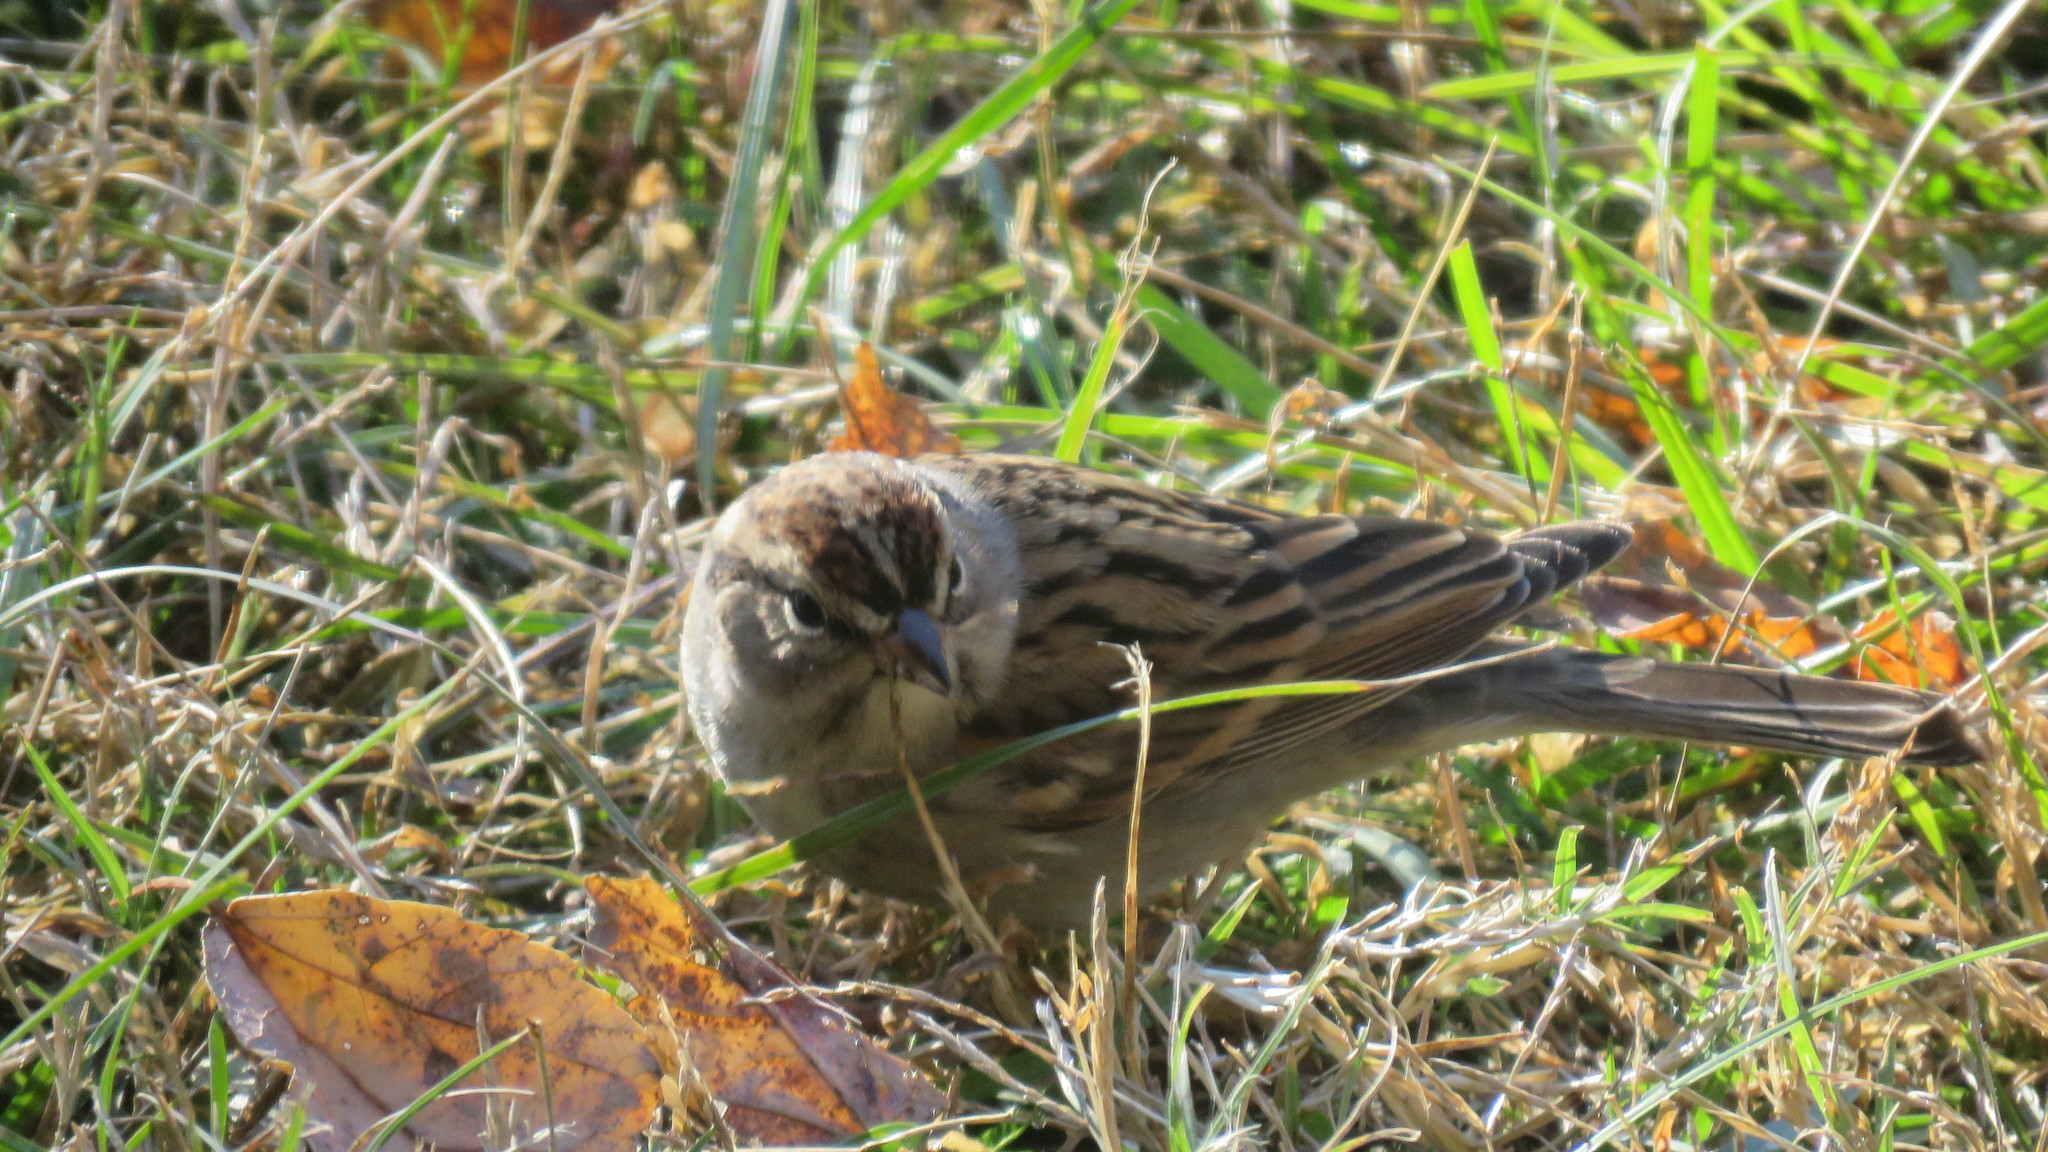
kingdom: Animalia
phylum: Chordata
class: Aves
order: Passeriformes
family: Passerellidae
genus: Spizella
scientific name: Spizella passerina
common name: Chipping sparrow
